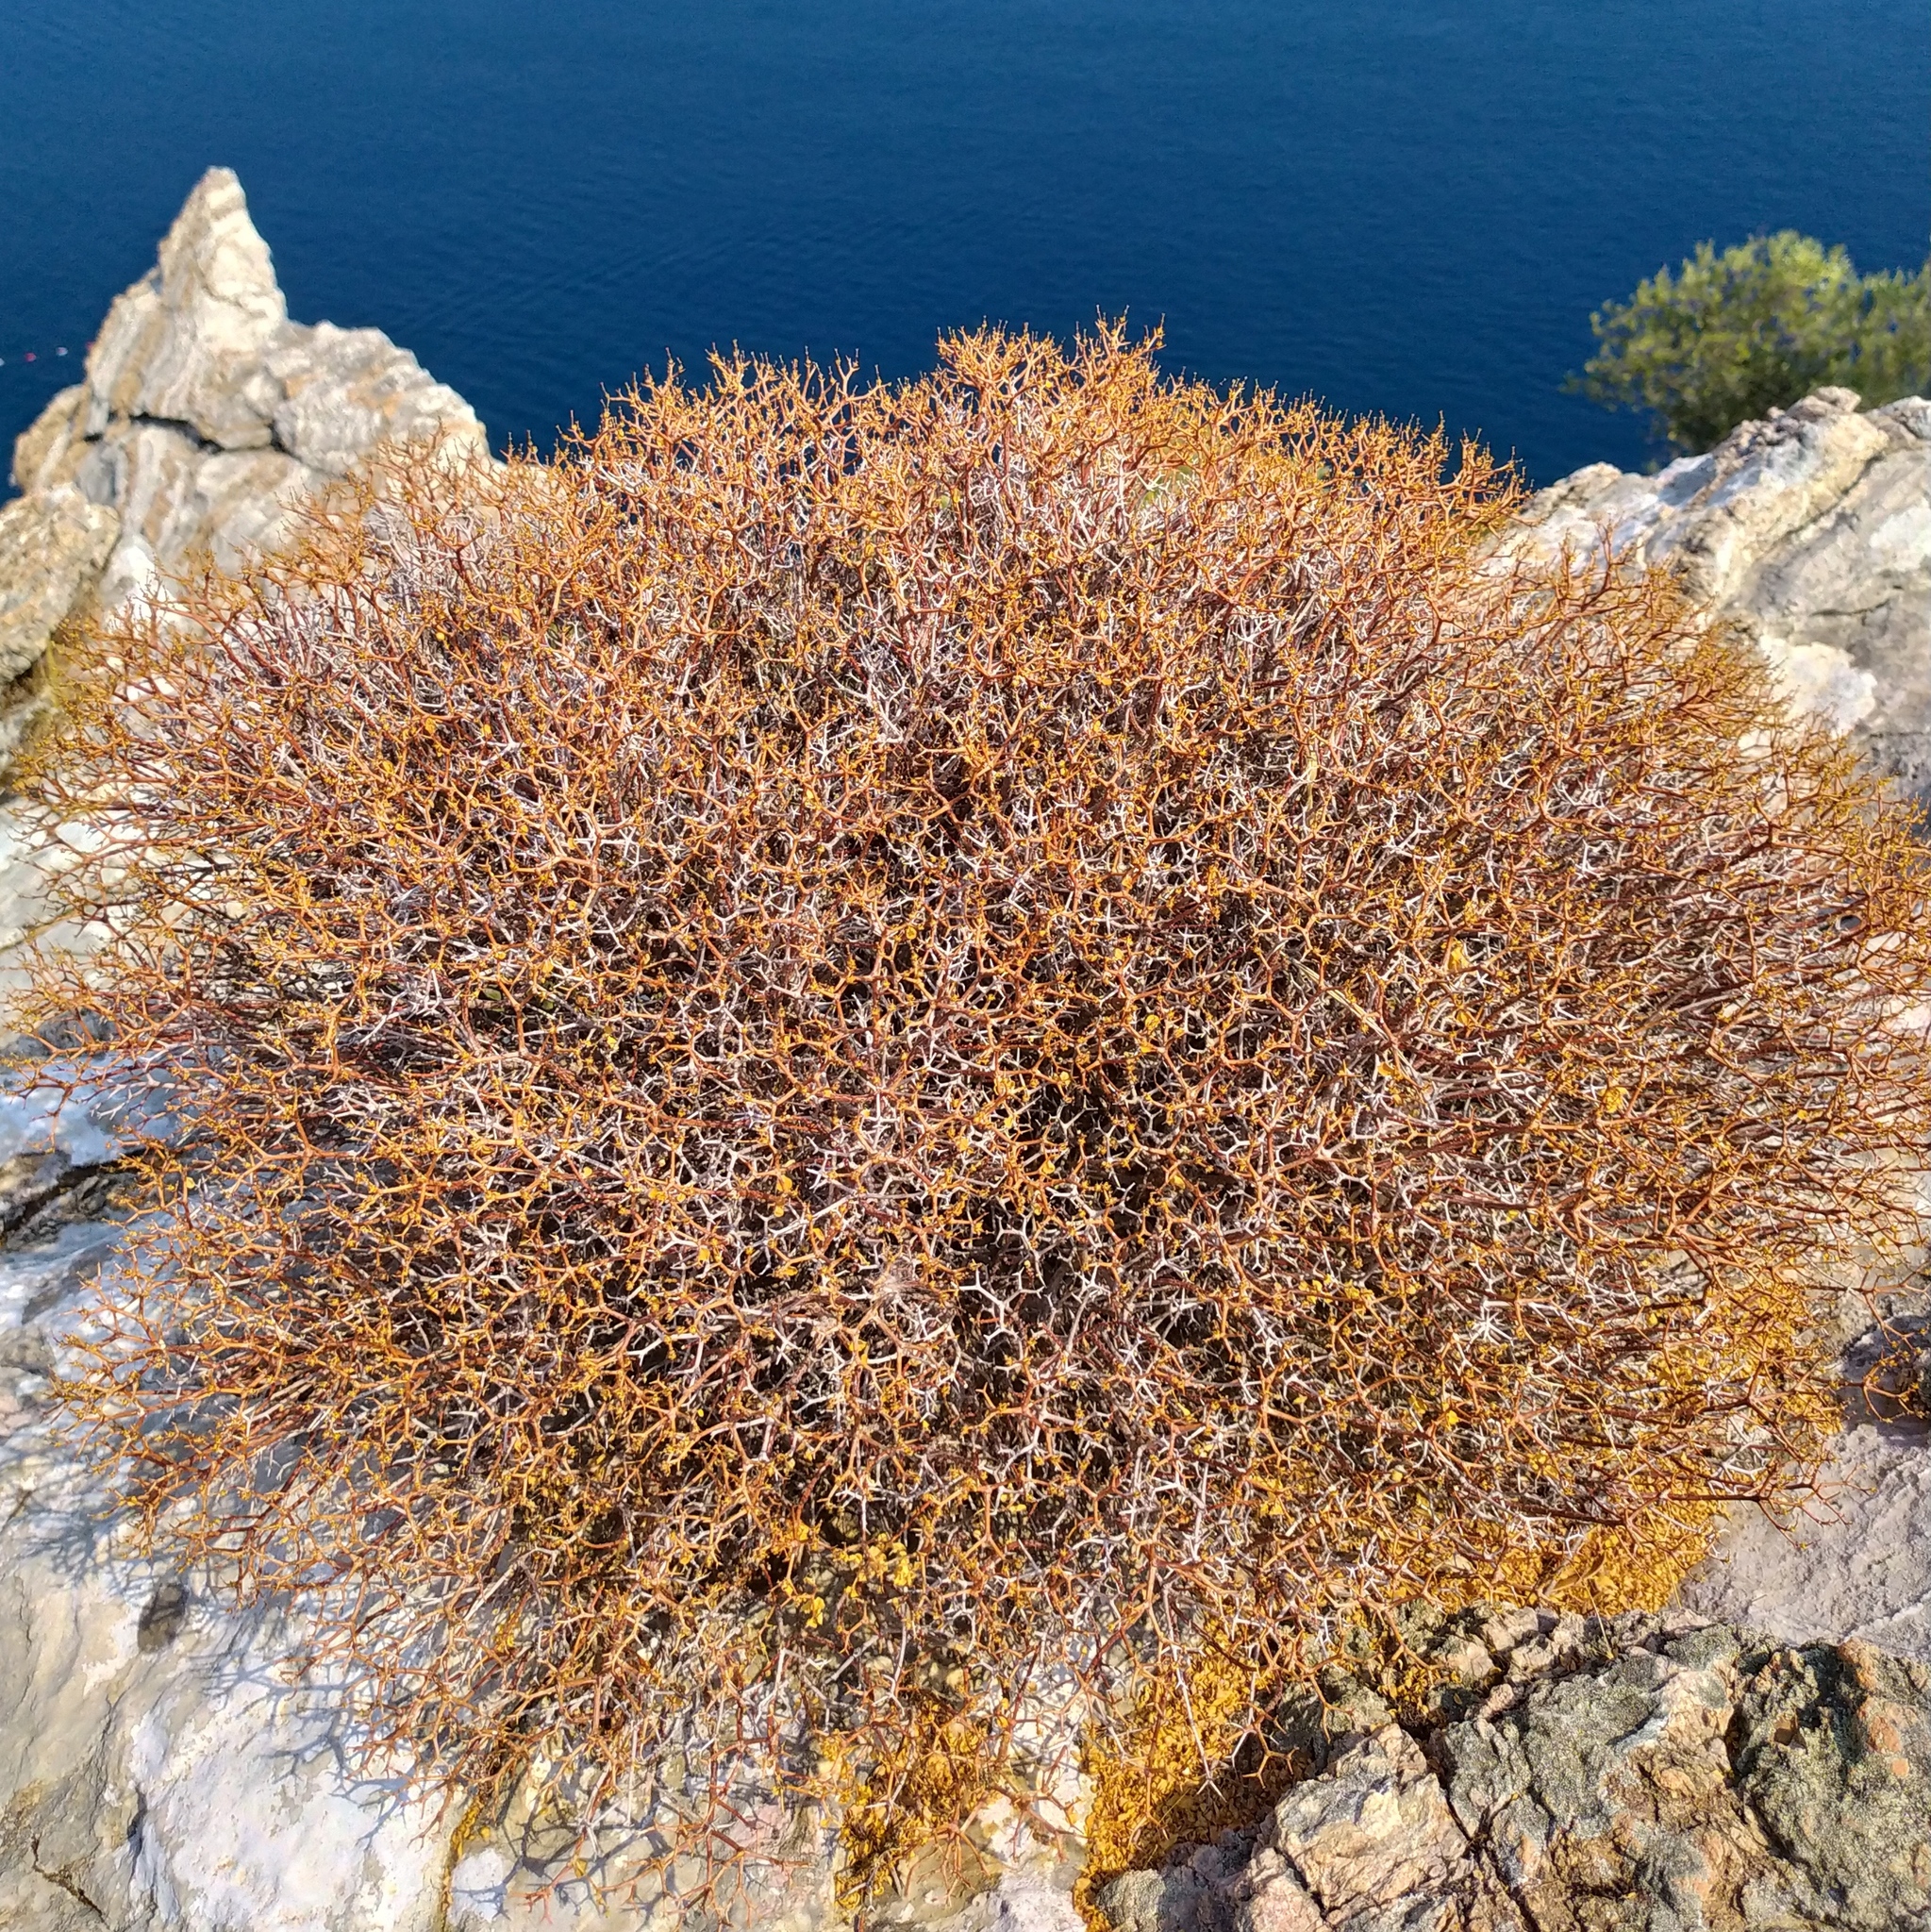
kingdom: Plantae
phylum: Tracheophyta
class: Magnoliopsida
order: Rosales
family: Rosaceae
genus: Sarcopoterium
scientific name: Sarcopoterium spinosum
